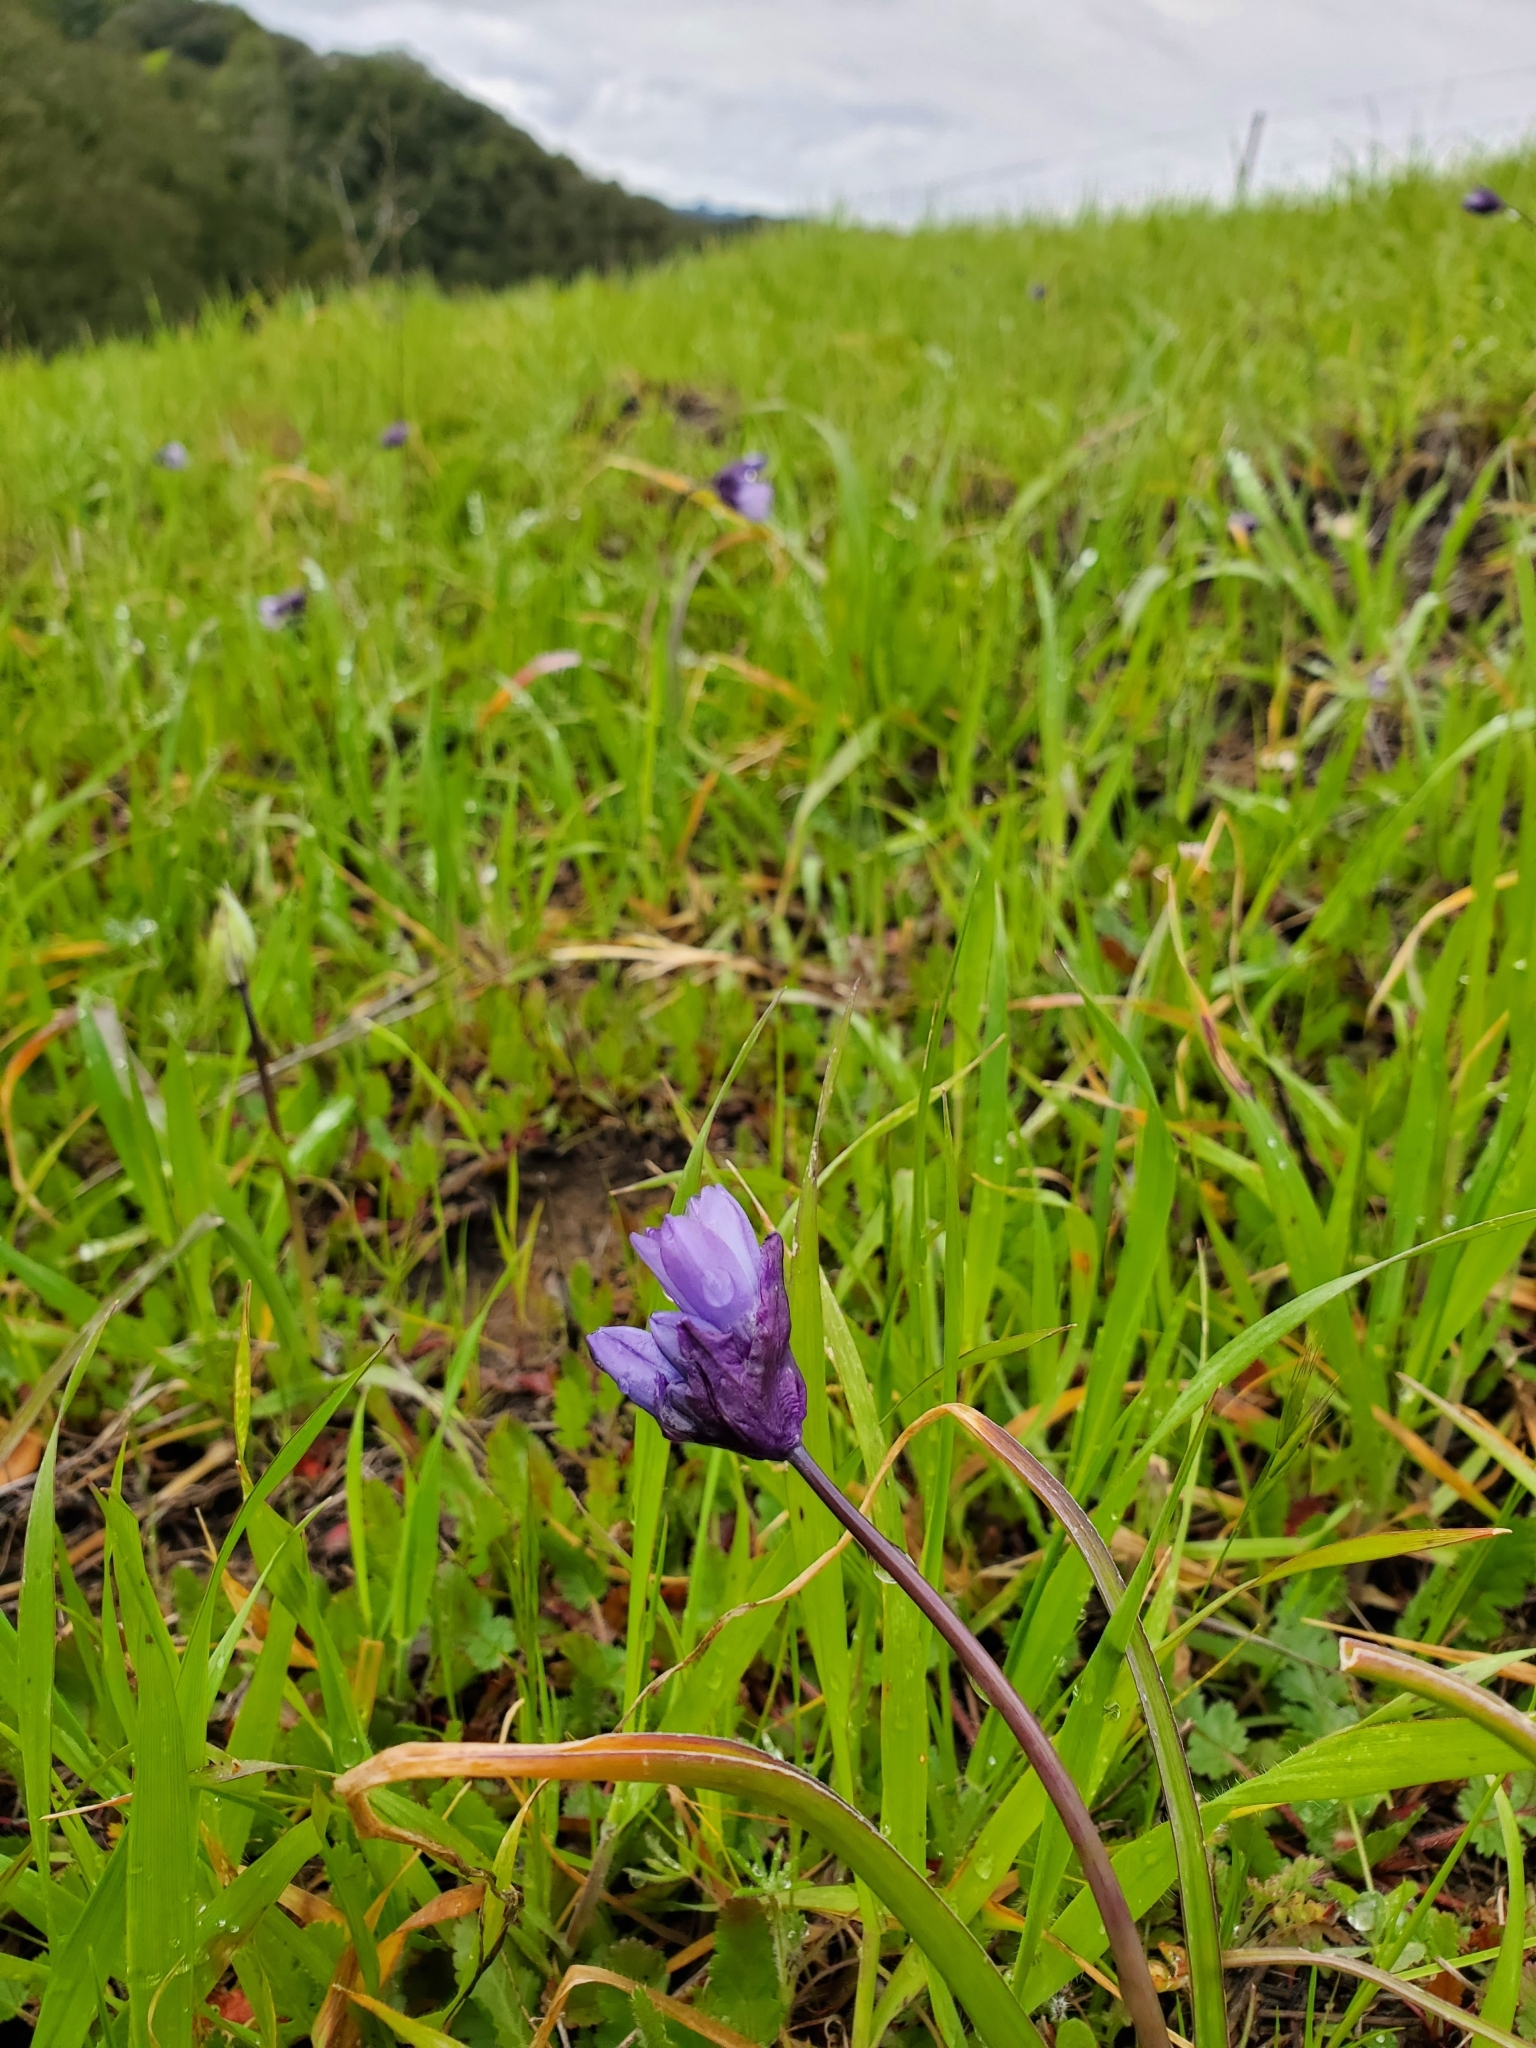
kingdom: Plantae
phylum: Tracheophyta
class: Liliopsida
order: Asparagales
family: Asparagaceae
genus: Dipterostemon
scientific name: Dipterostemon capitatus
